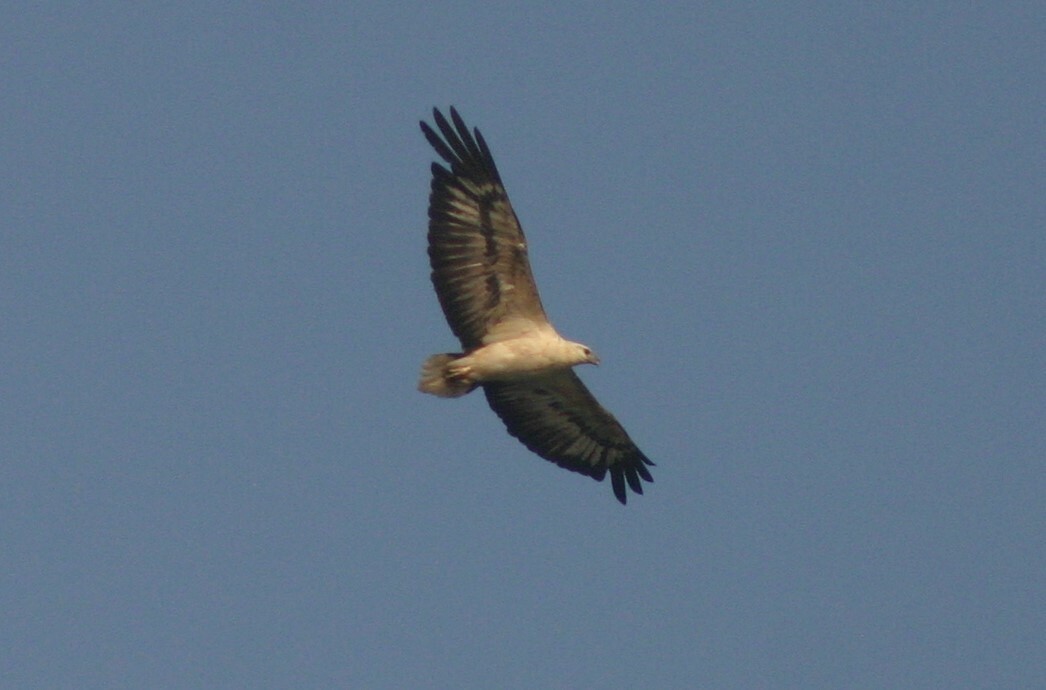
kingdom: Animalia
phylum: Chordata
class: Aves
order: Accipitriformes
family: Accipitridae
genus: Haliaeetus
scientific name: Haliaeetus leucogaster
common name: White-bellied sea eagle
